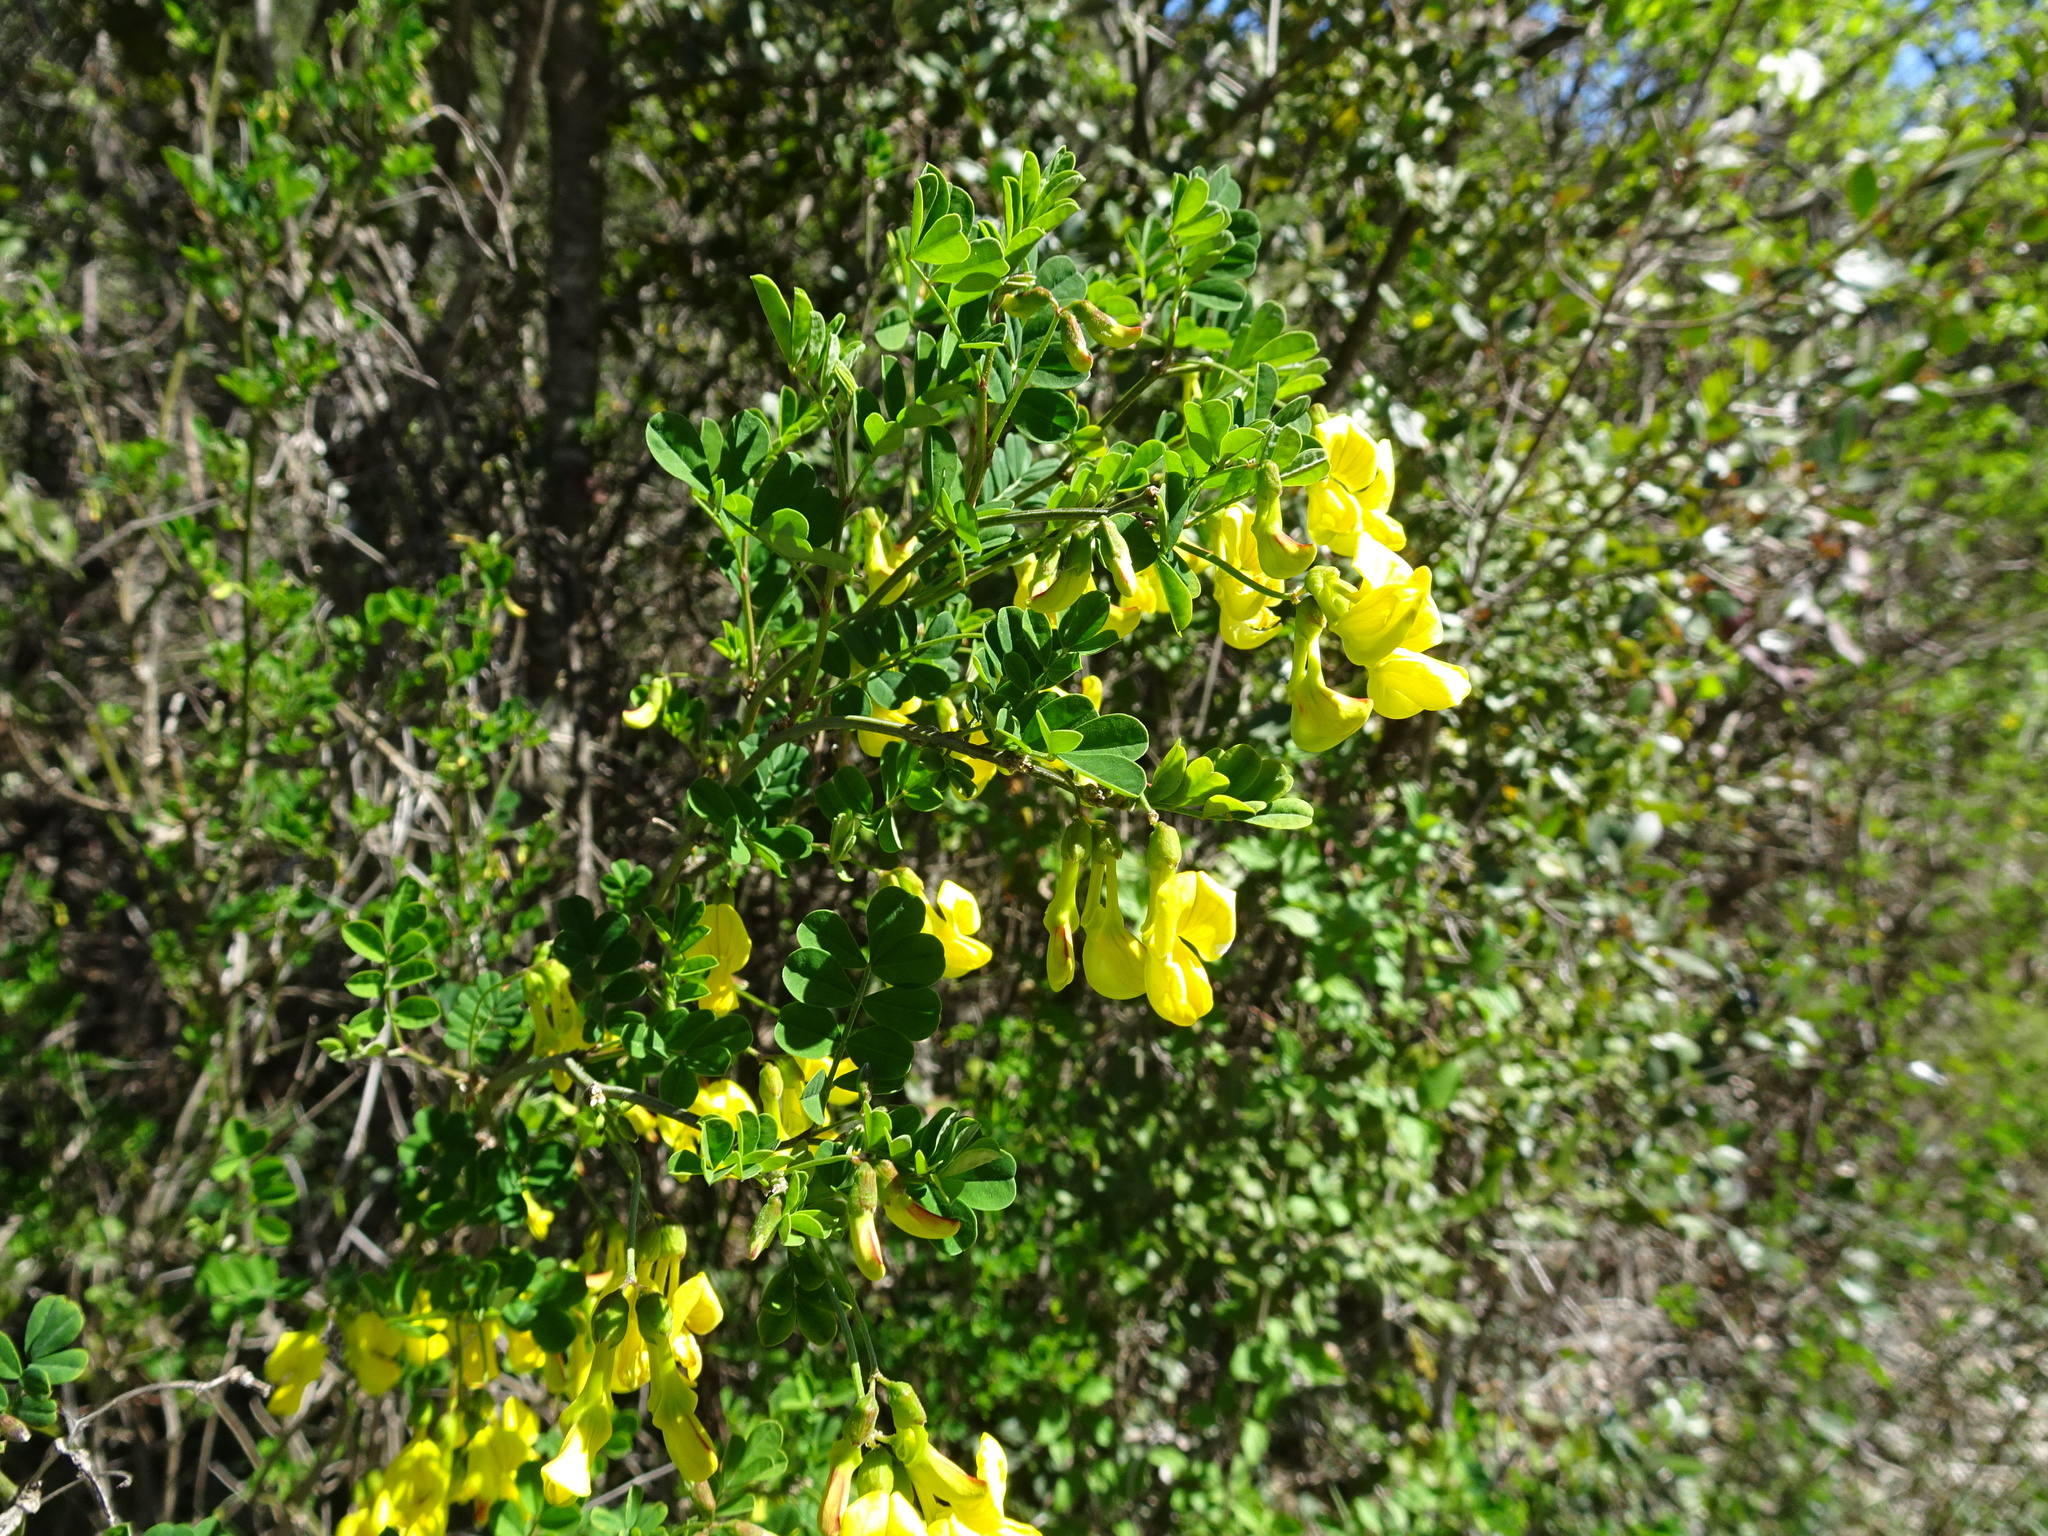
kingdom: Plantae
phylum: Tracheophyta
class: Magnoliopsida
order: Fabales
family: Fabaceae
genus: Hippocrepis
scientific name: Hippocrepis emerus
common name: Scorpion senna
